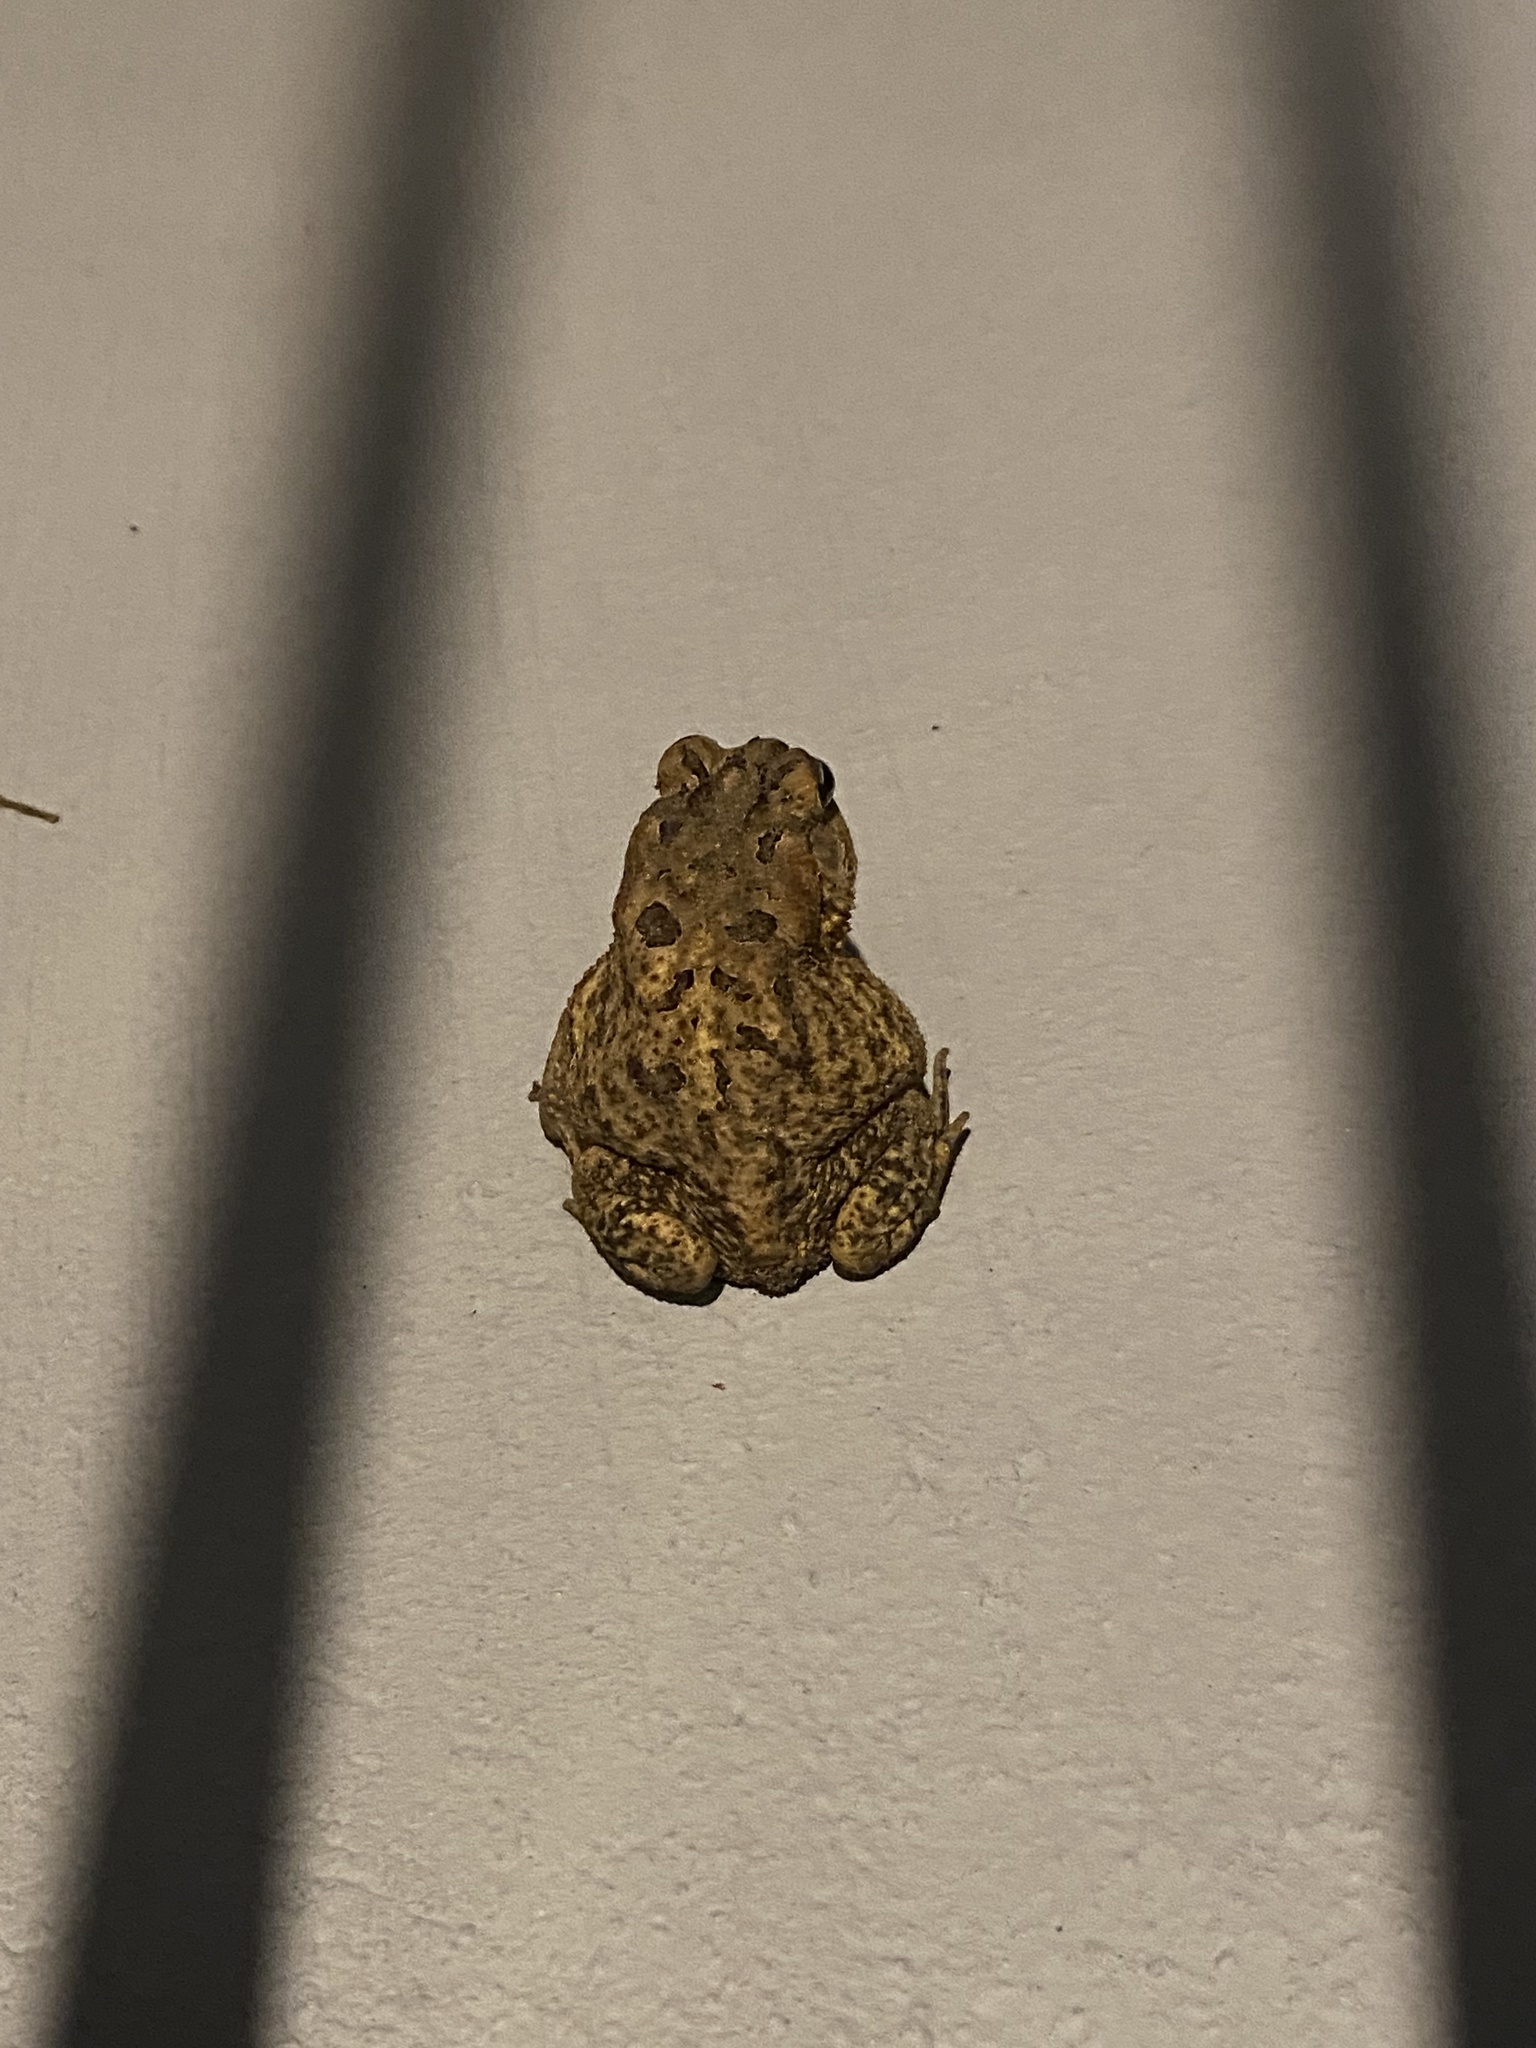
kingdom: Animalia
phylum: Chordata
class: Amphibia
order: Anura
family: Bufonidae
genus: Anaxyrus
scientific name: Anaxyrus terrestris
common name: Southern toad
